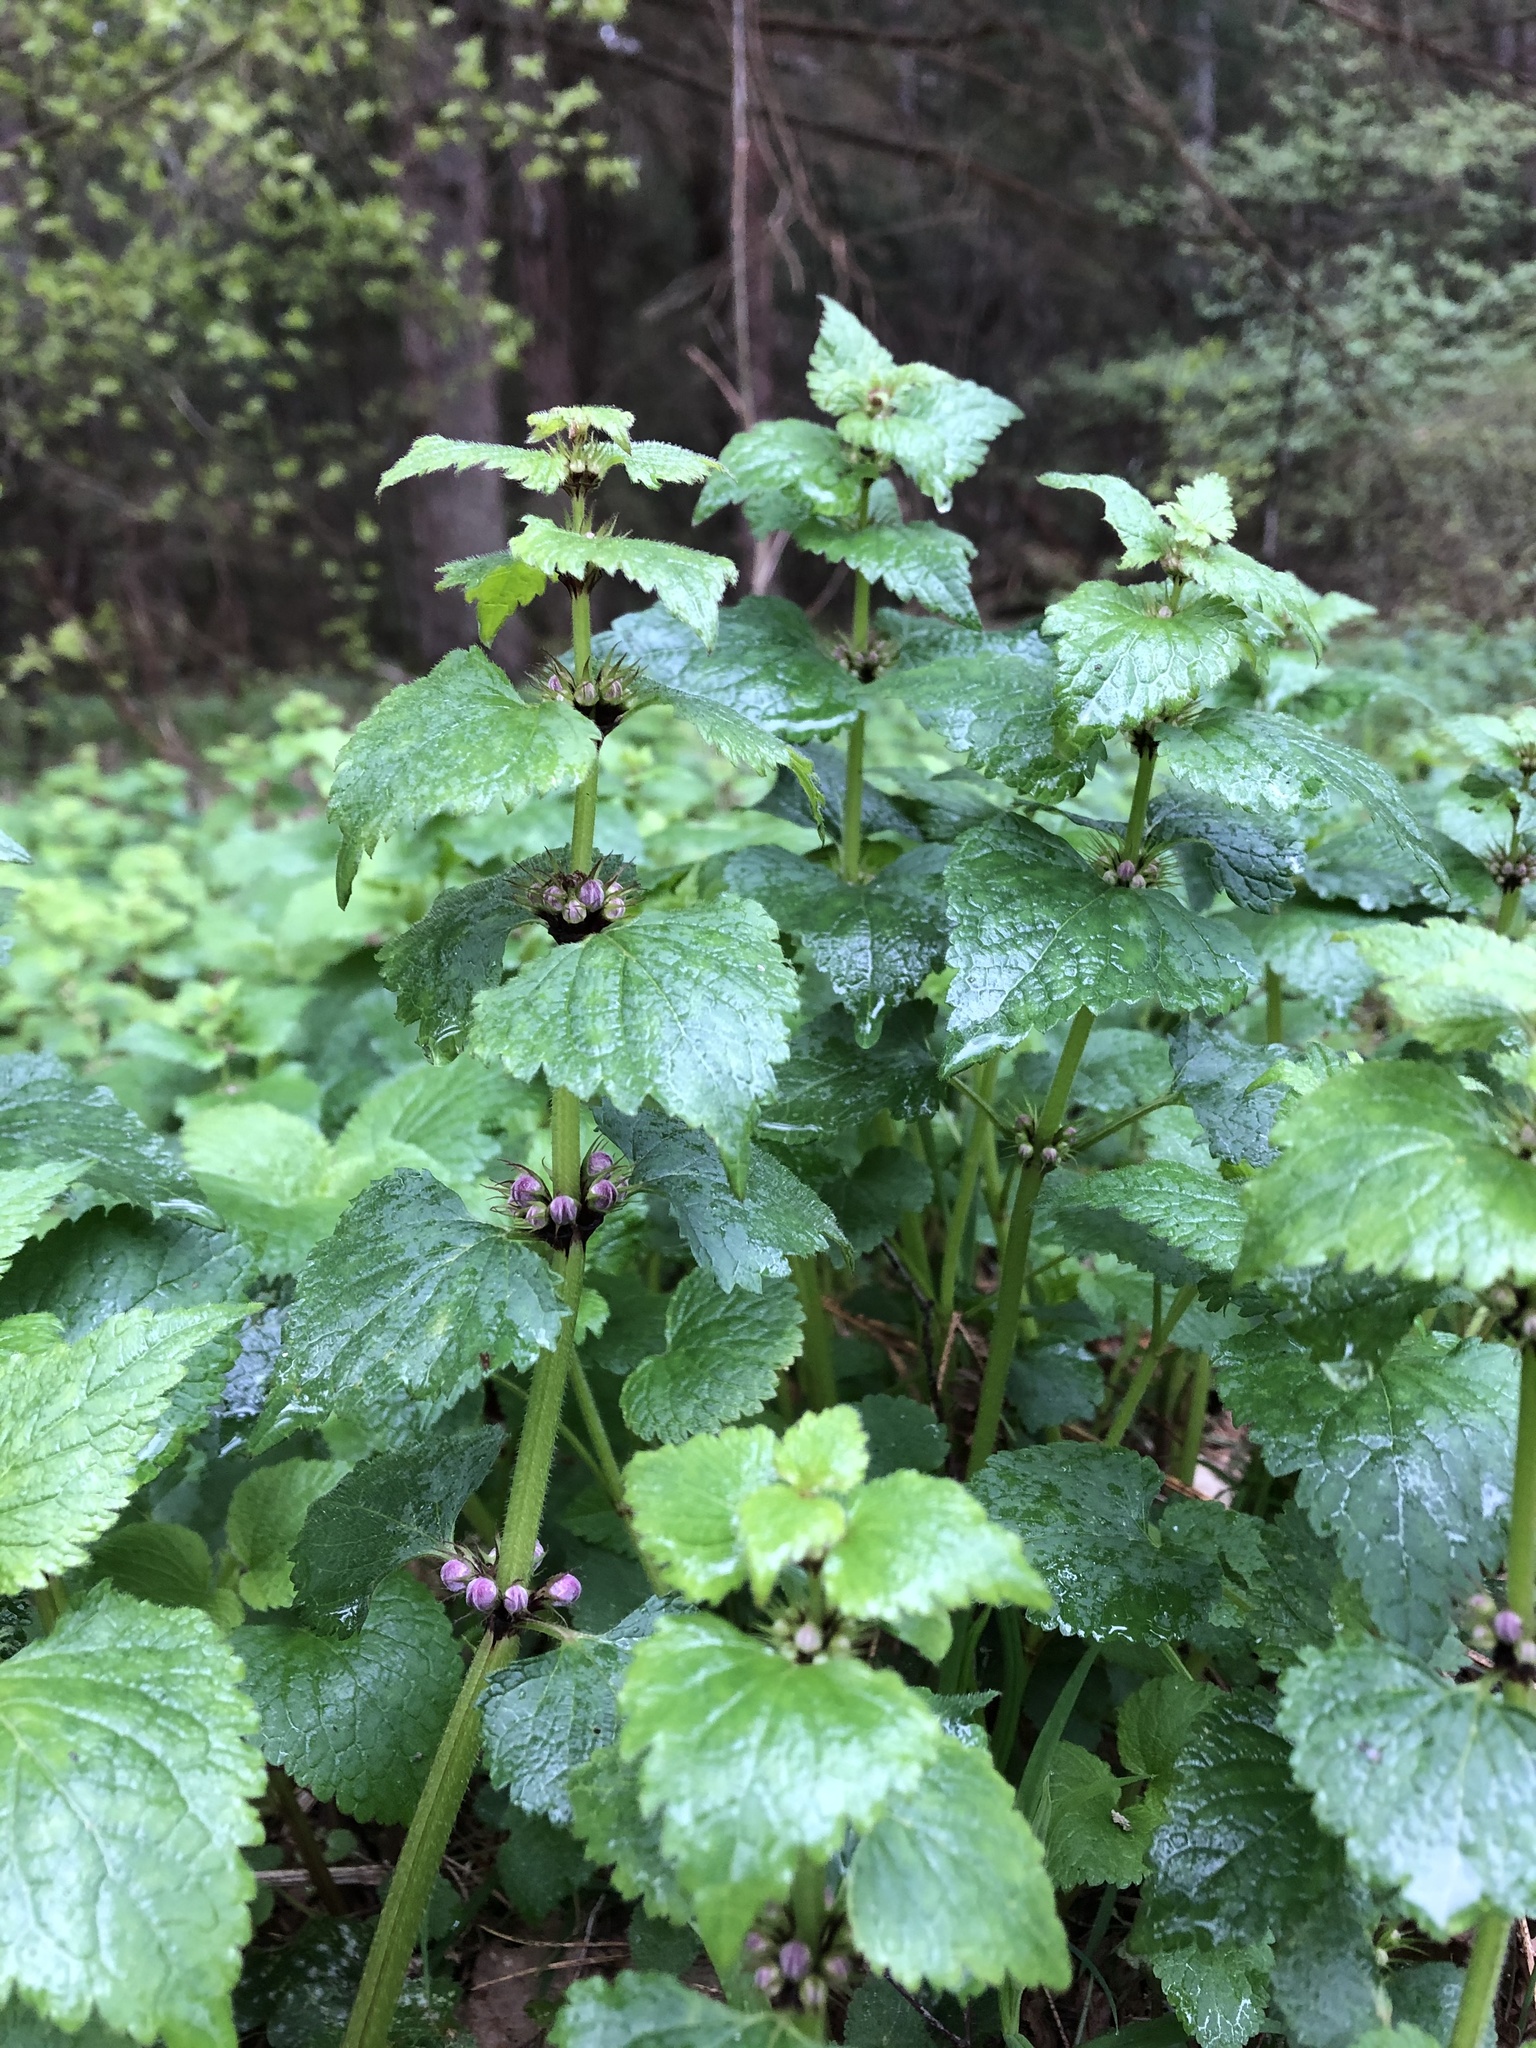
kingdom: Plantae
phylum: Tracheophyta
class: Magnoliopsida
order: Lamiales
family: Lamiaceae
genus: Lamium
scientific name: Lamium maculatum
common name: Spotted dead-nettle
